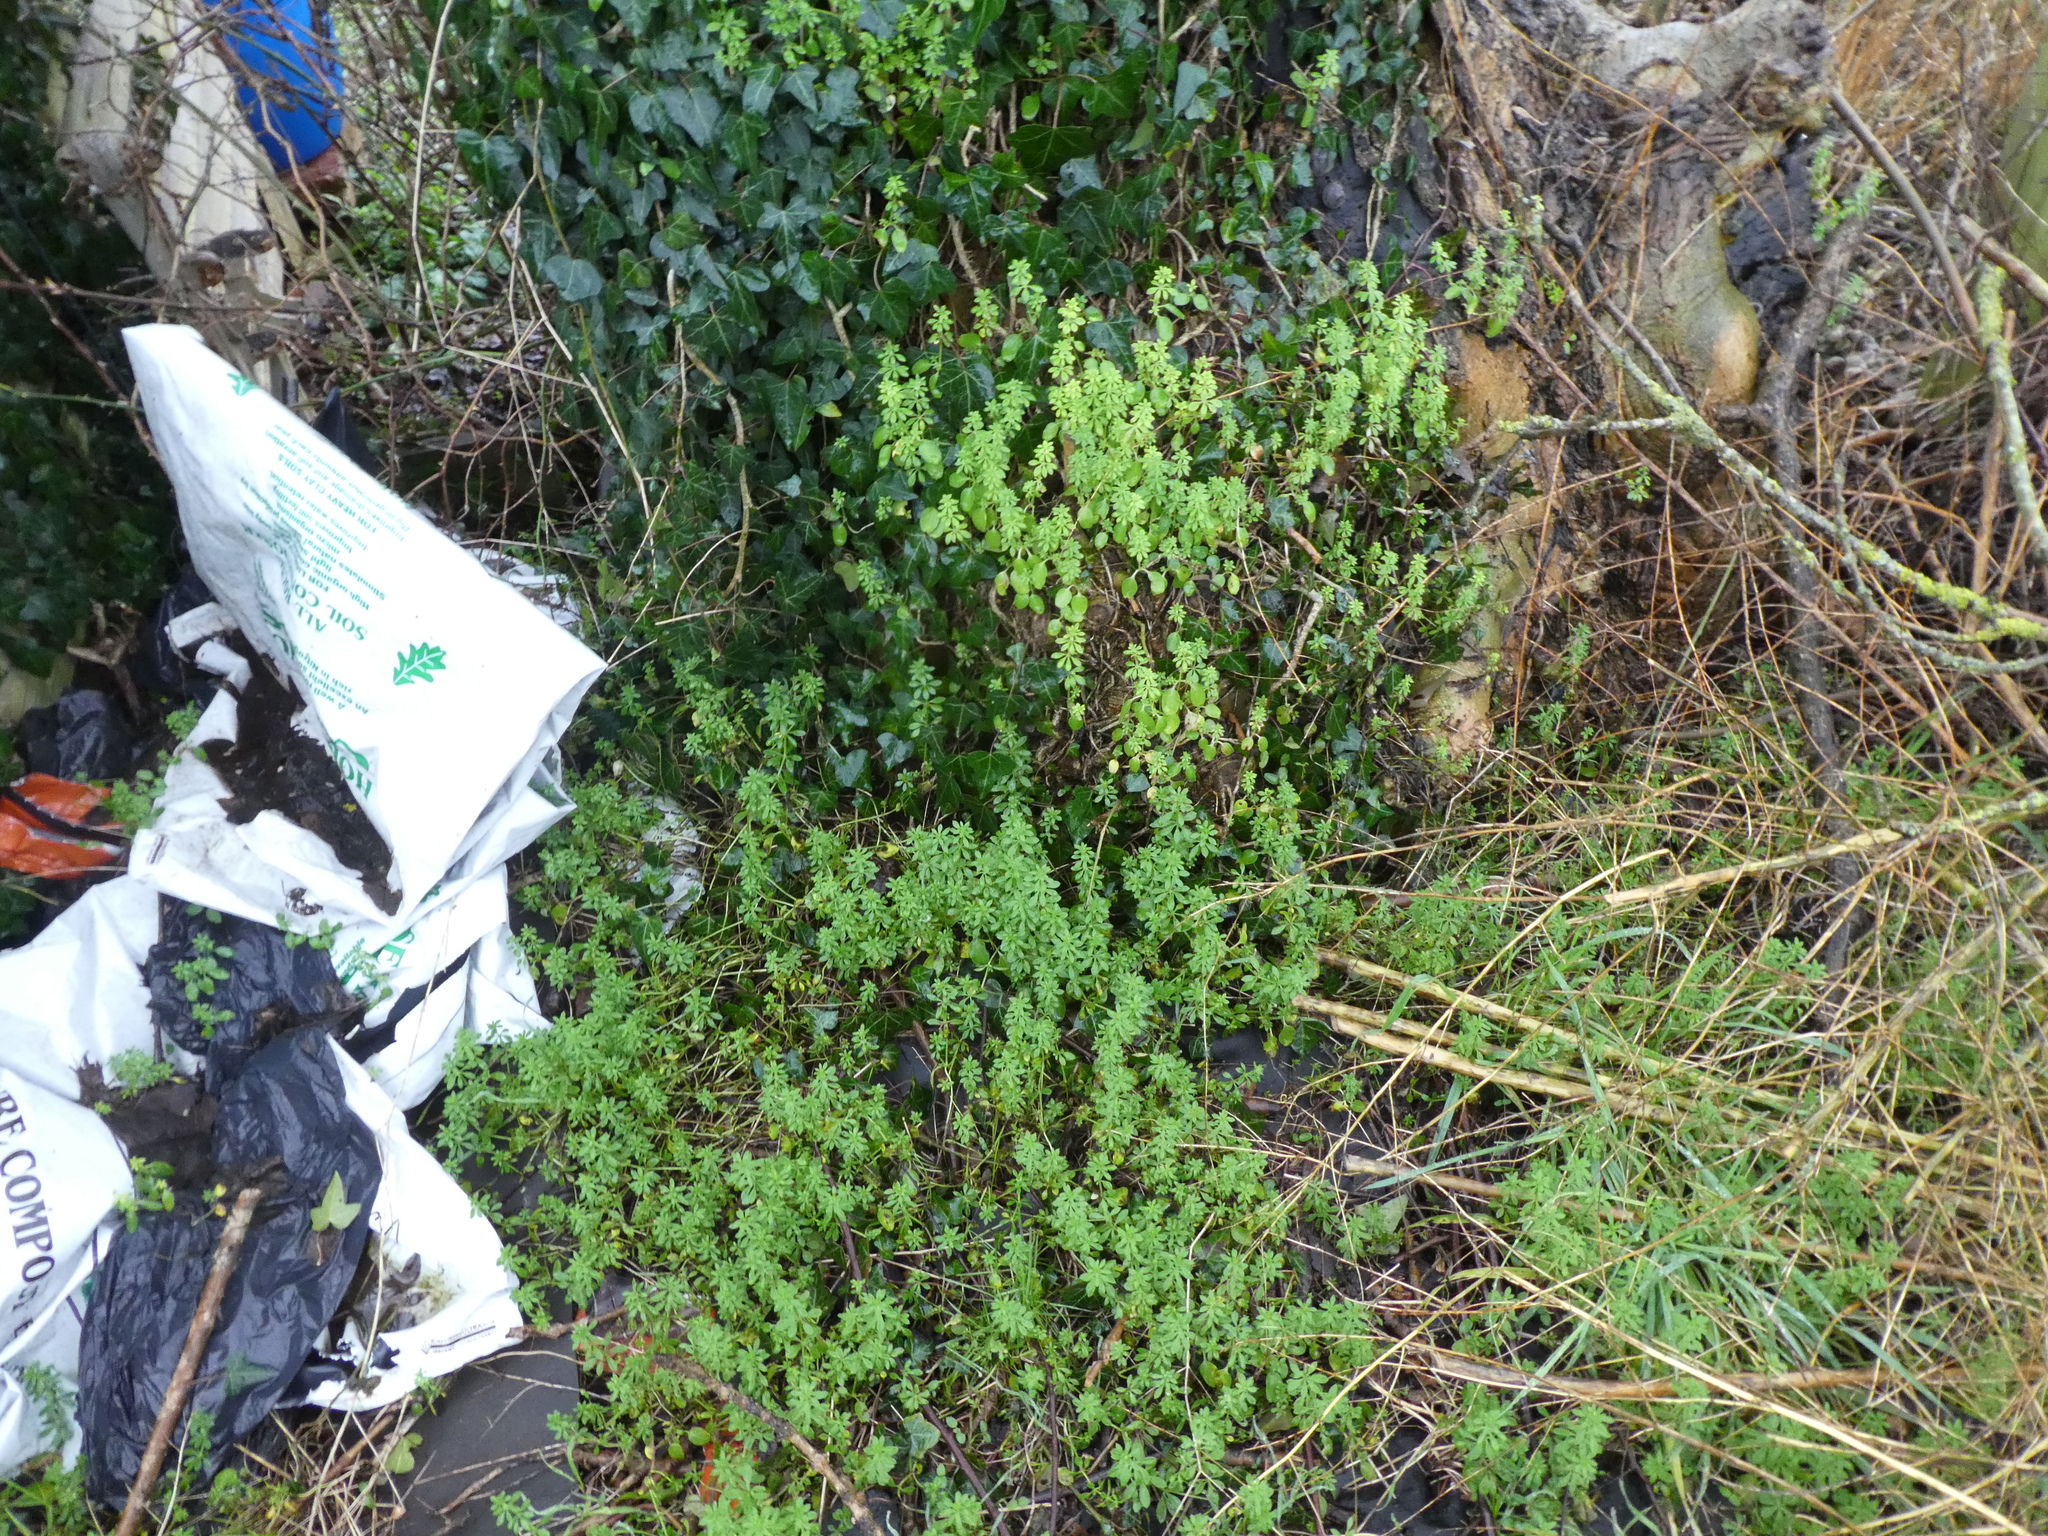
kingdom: Plantae
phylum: Tracheophyta
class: Magnoliopsida
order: Gentianales
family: Rubiaceae
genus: Galium
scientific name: Galium aparine
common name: Cleavers
